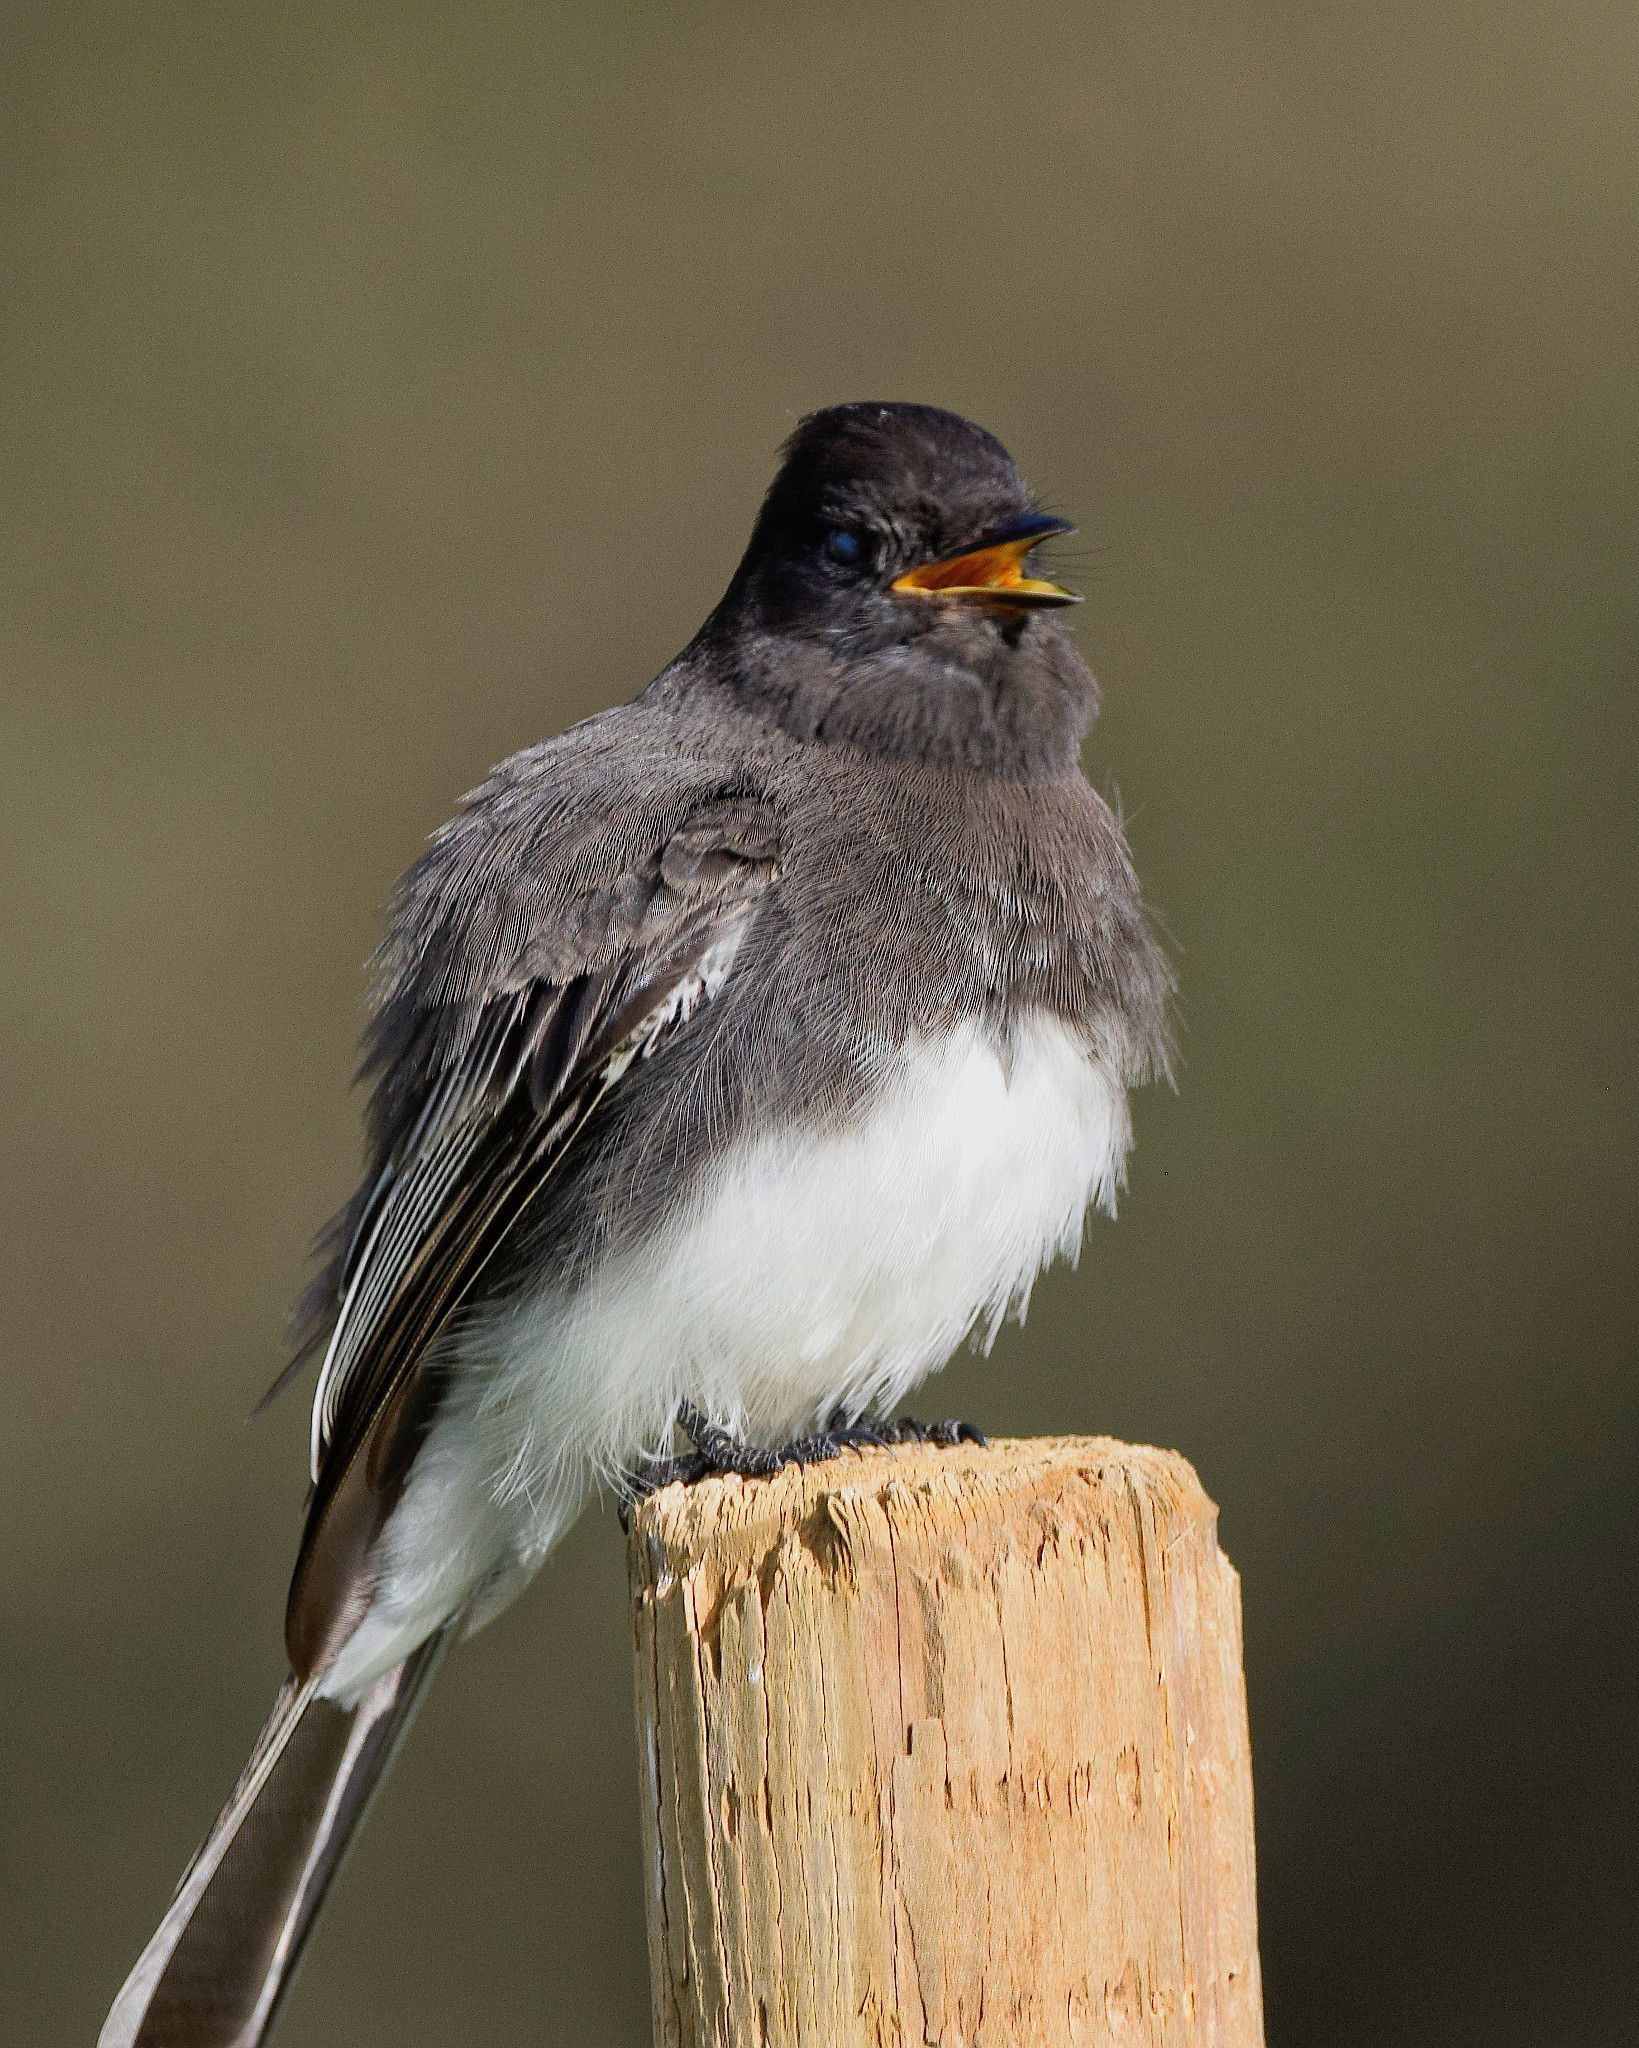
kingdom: Animalia
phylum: Chordata
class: Aves
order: Passeriformes
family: Tyrannidae
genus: Sayornis
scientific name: Sayornis nigricans
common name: Black phoebe
